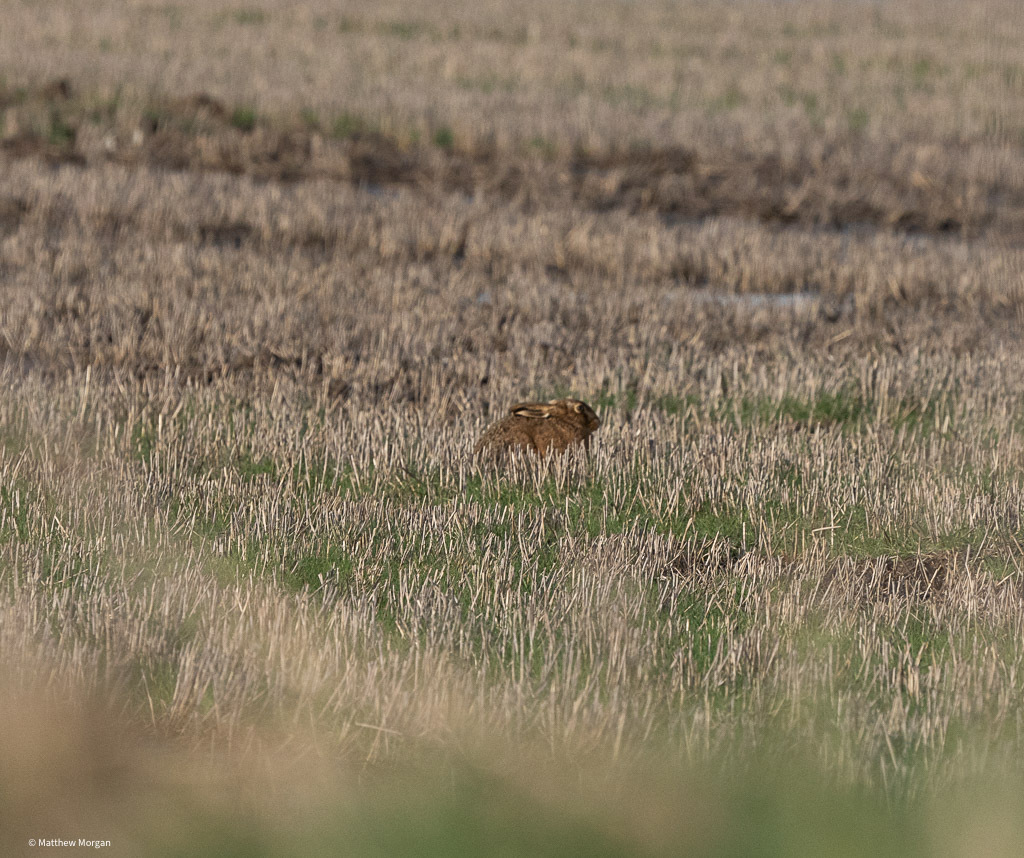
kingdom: Animalia
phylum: Chordata
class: Mammalia
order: Lagomorpha
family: Leporidae
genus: Lepus
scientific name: Lepus europaeus
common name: European hare
